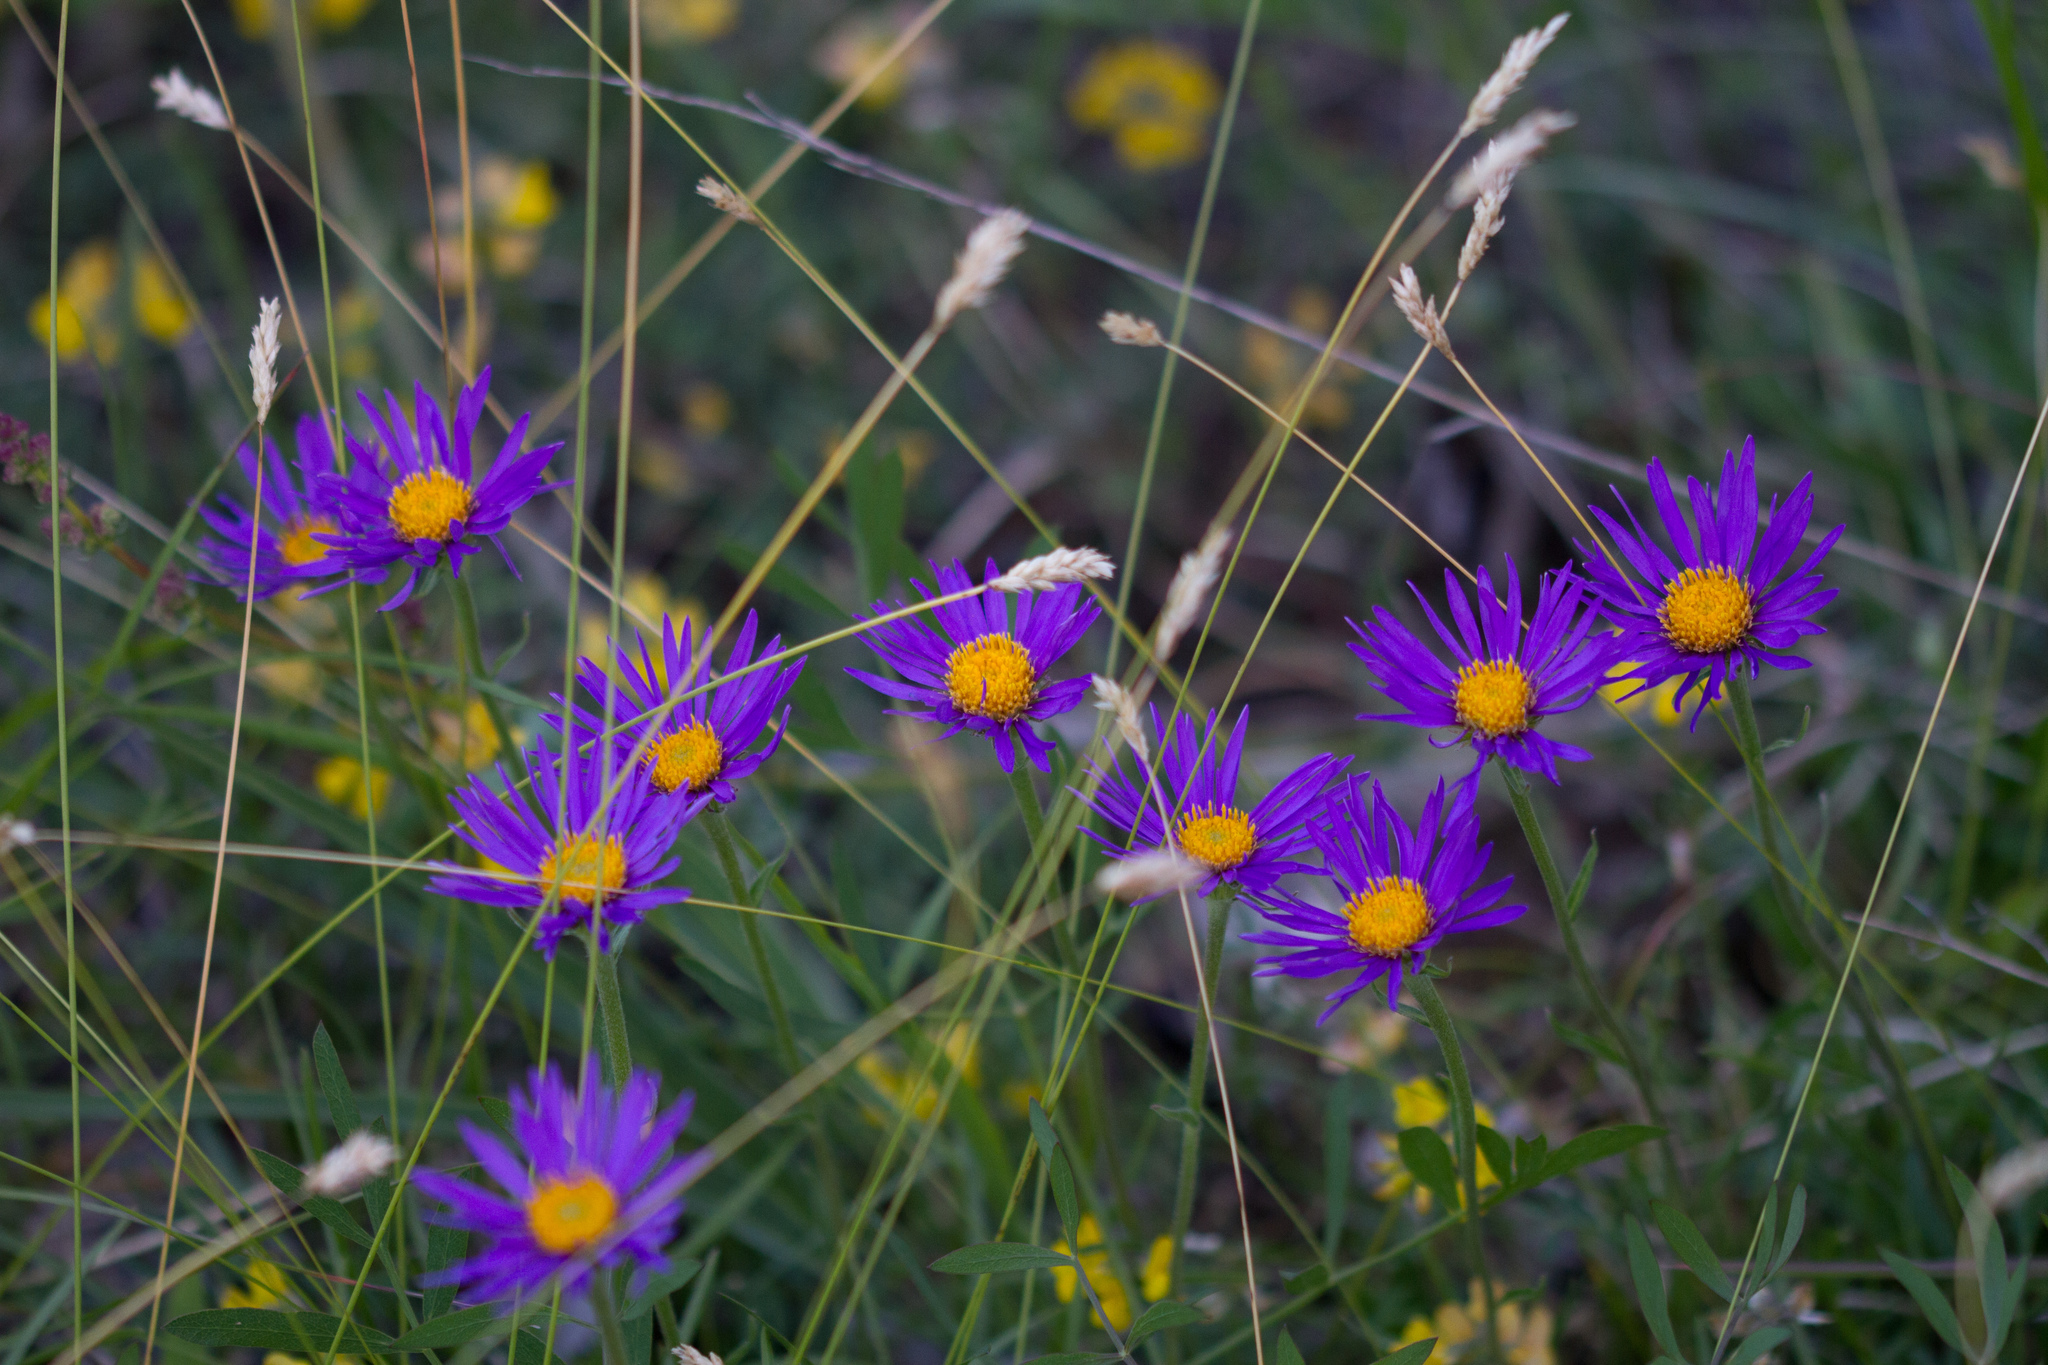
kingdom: Plantae
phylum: Tracheophyta
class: Magnoliopsida
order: Asterales
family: Asteraceae
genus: Aster
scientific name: Aster alpinus
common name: Alpine aster
